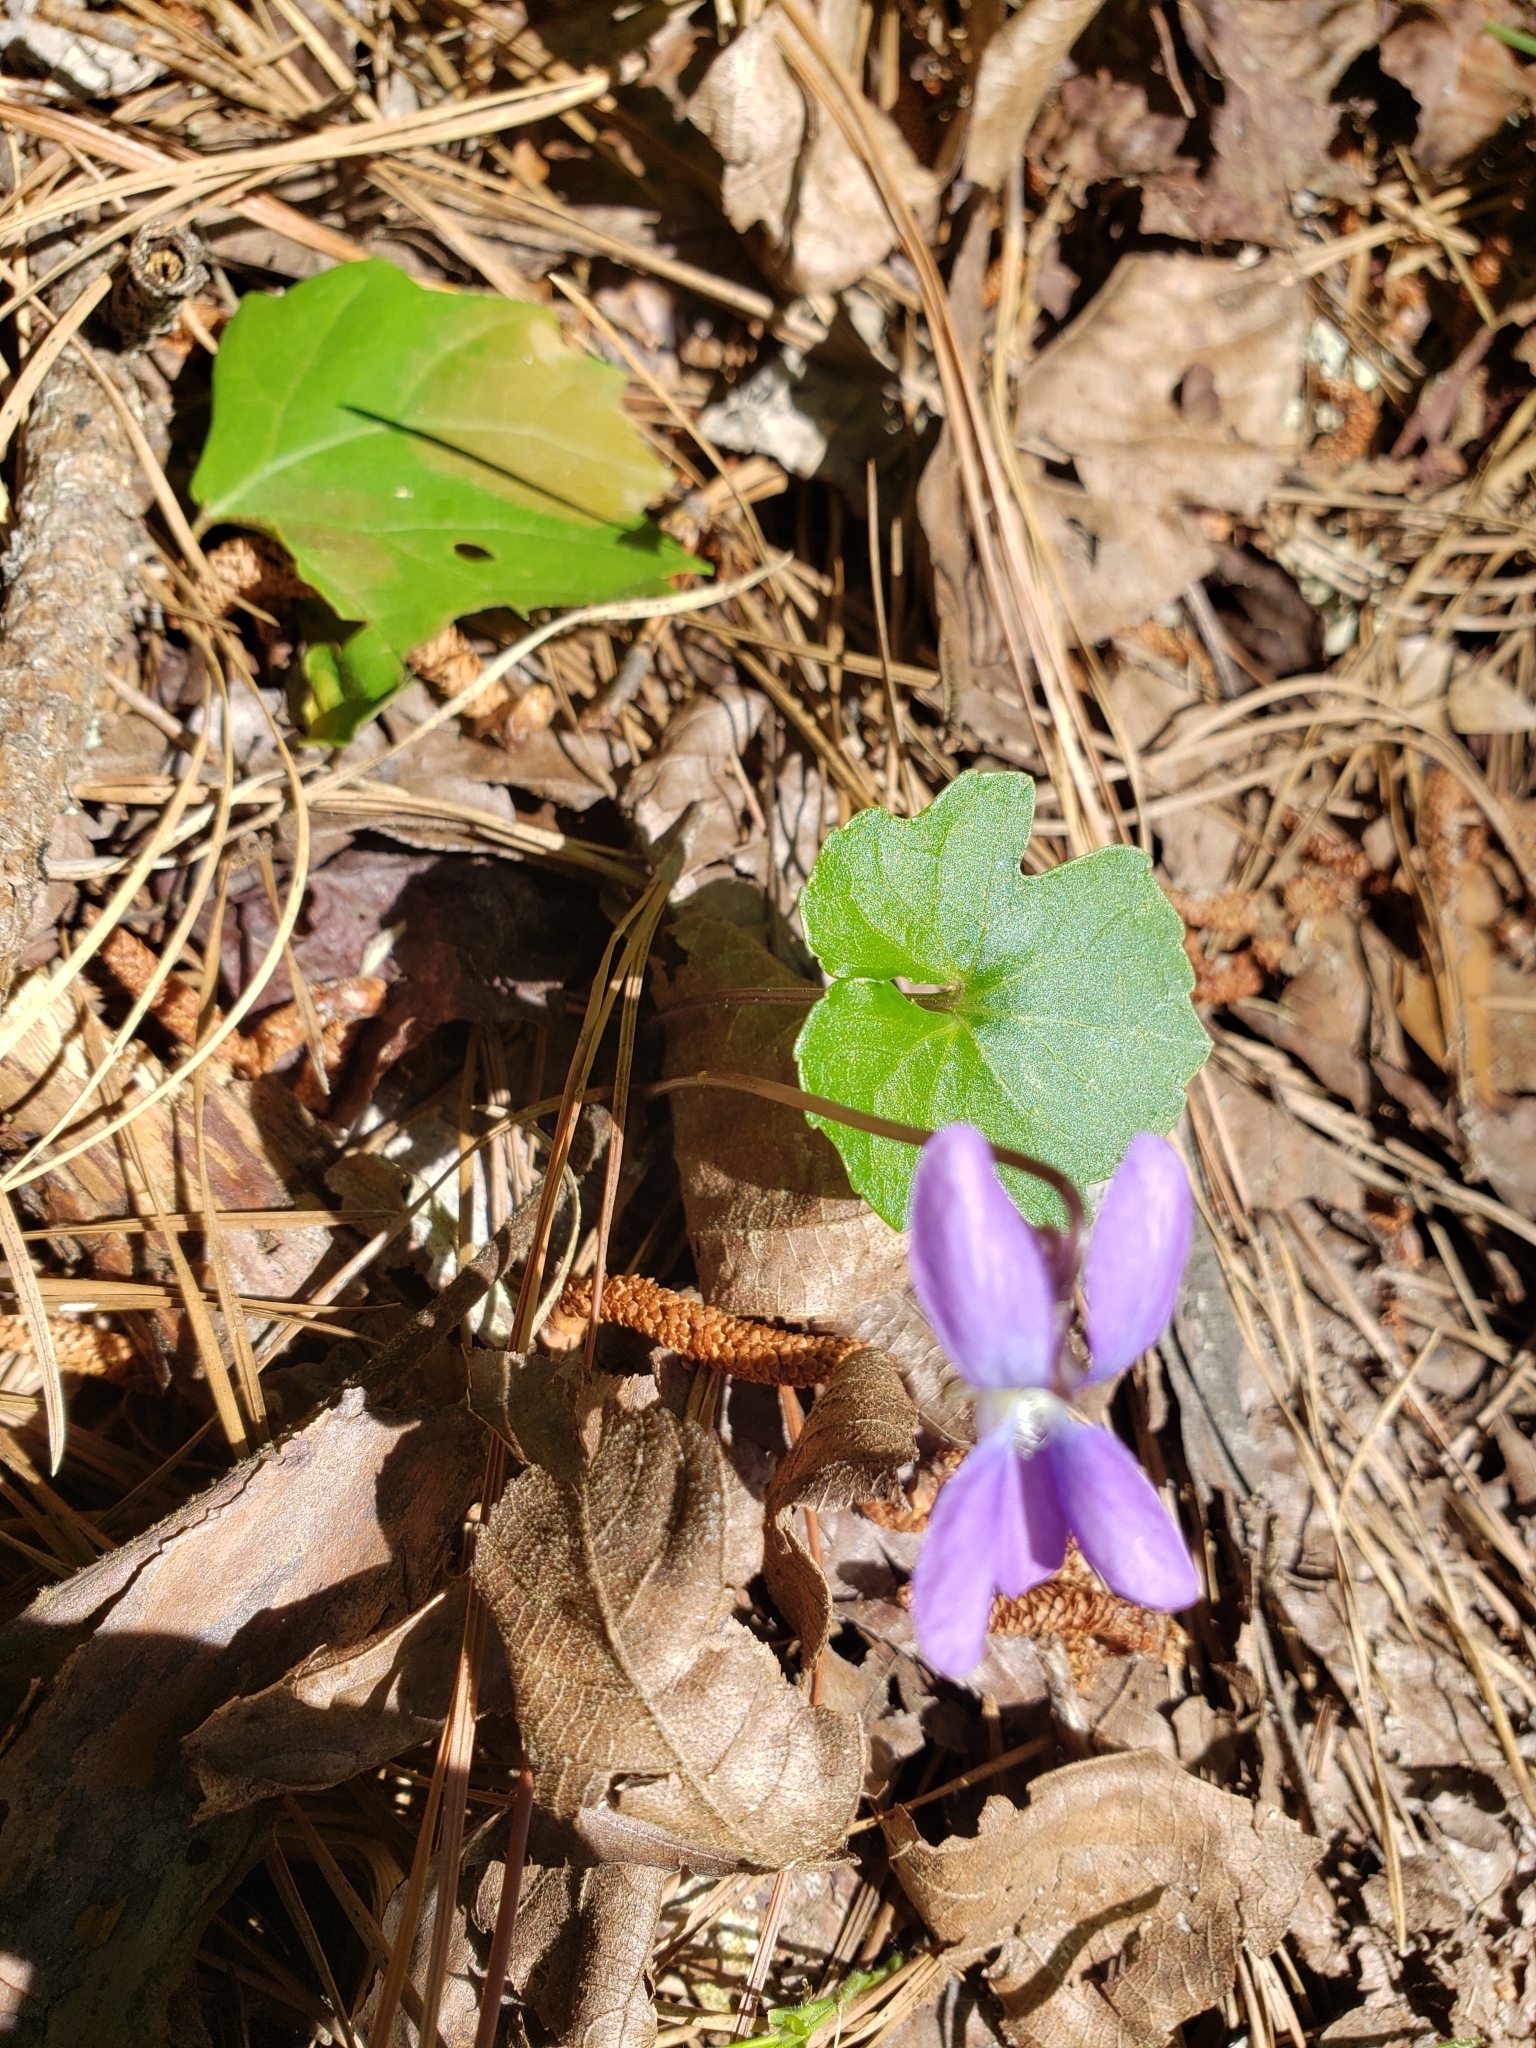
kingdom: Plantae
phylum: Tracheophyta
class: Magnoliopsida
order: Malpighiales
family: Violaceae
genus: Viola
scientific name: Viola palmata
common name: Early blue violet
